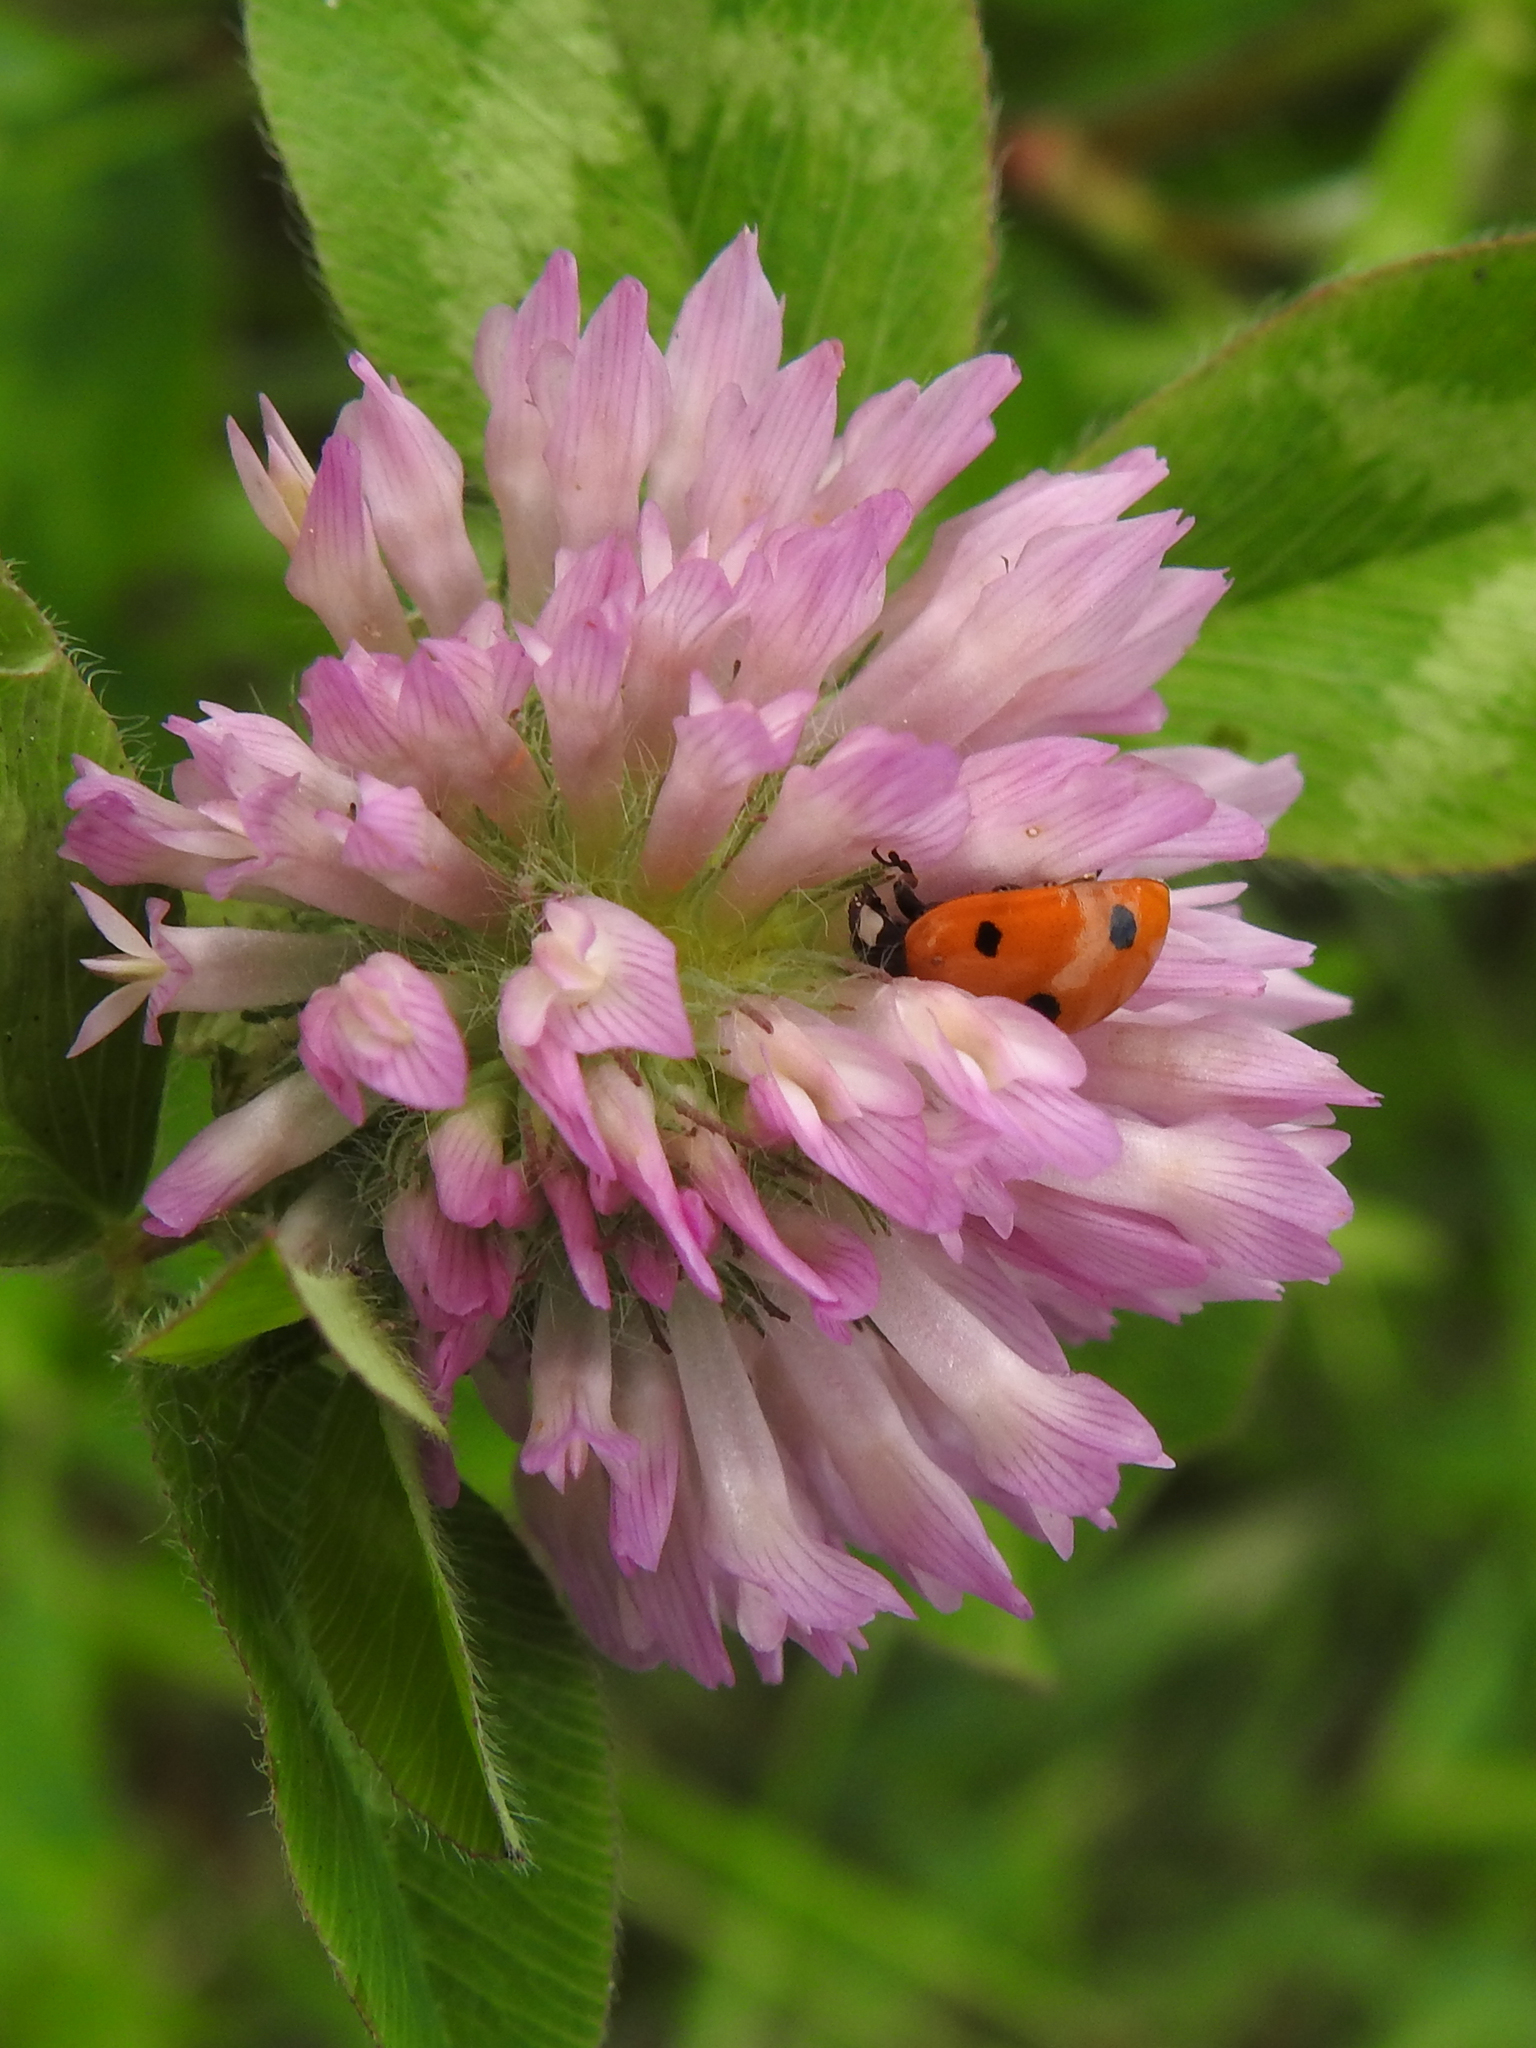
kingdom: Animalia
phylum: Arthropoda
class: Insecta
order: Coleoptera
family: Coccinellidae
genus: Coccinella
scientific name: Coccinella septempunctata
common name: Sevenspotted lady beetle
